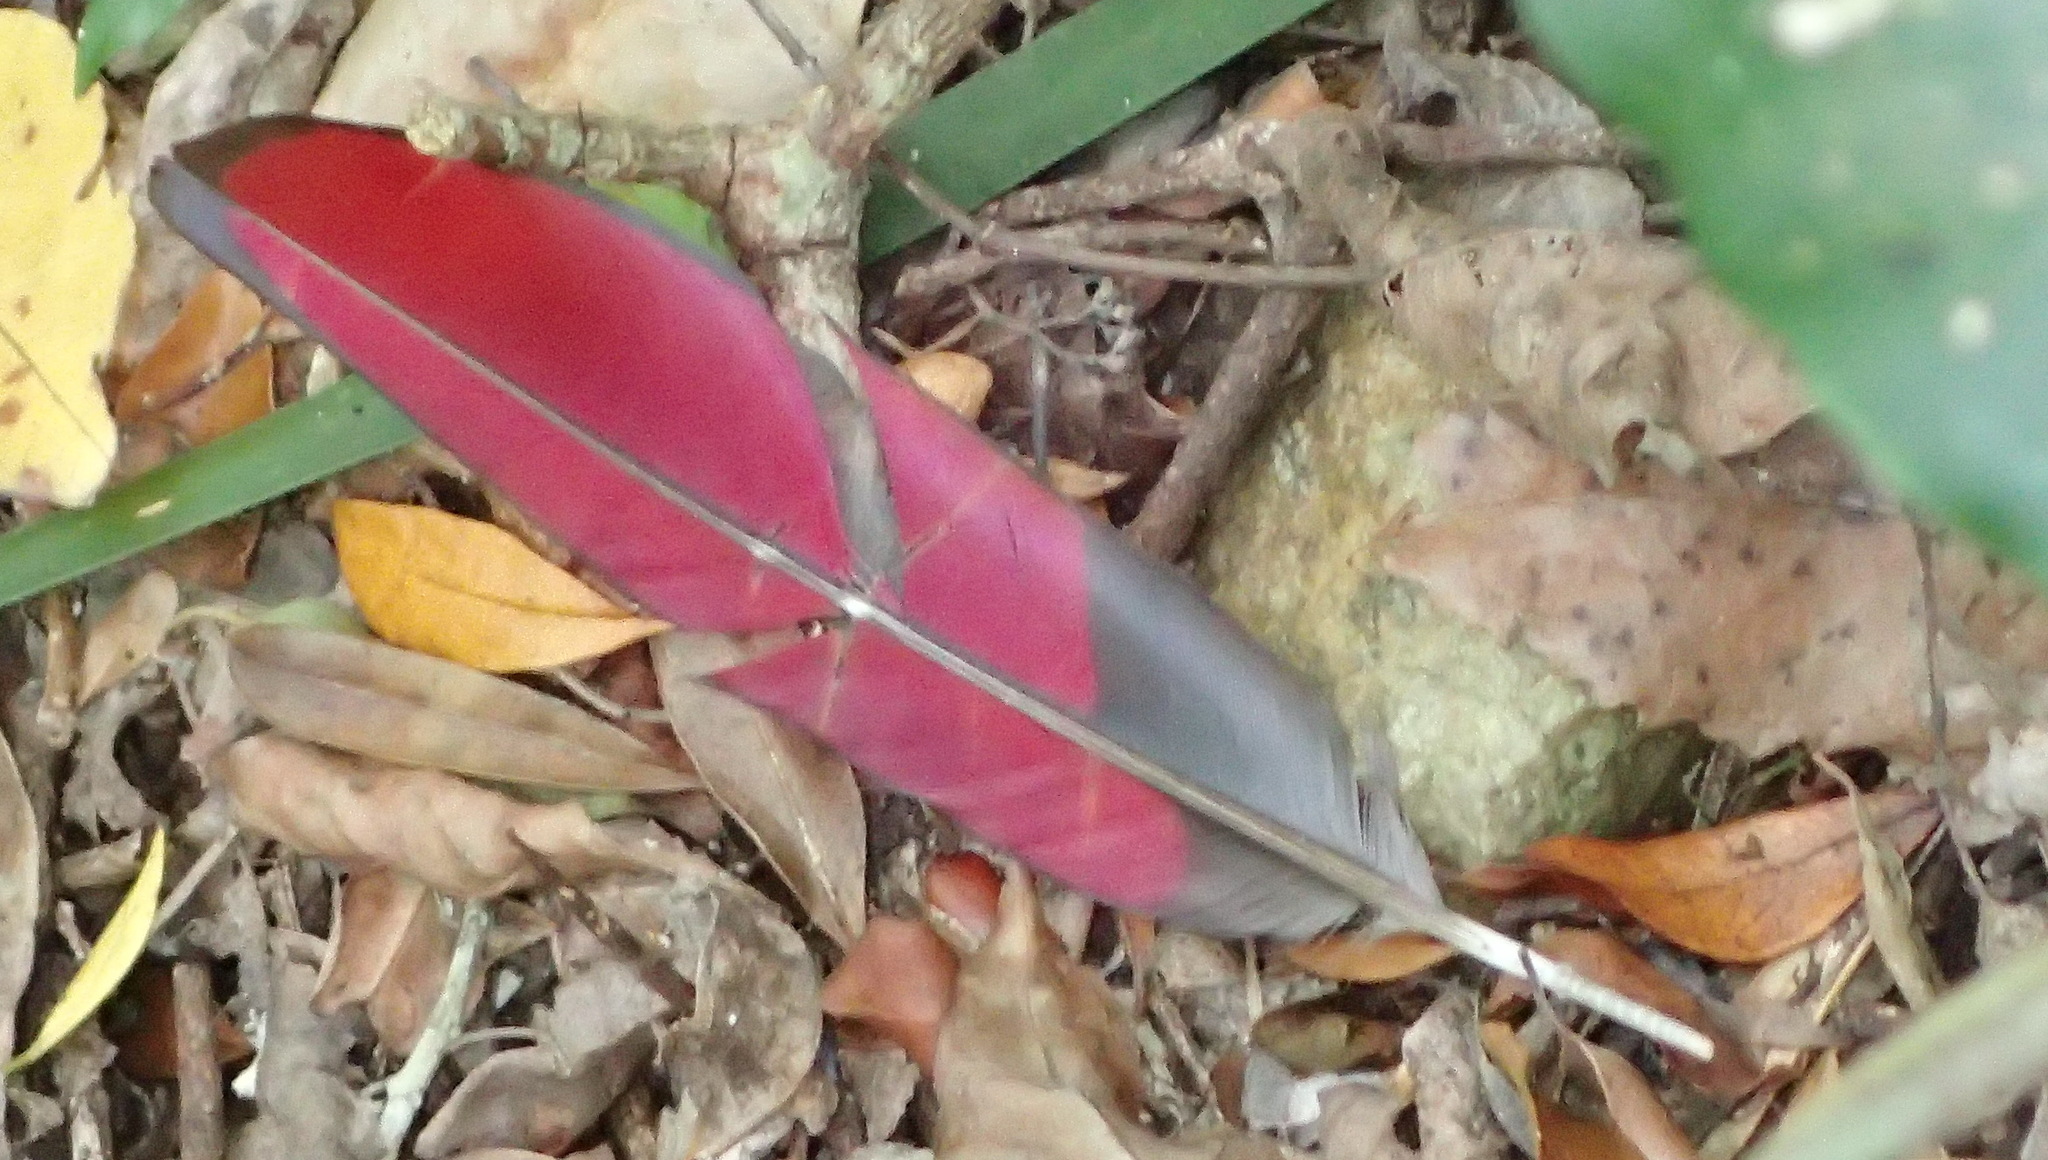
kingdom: Animalia
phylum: Chordata
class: Aves
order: Musophagiformes
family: Musophagidae
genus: Tauraco
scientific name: Tauraco corythaix
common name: Knysna turaco
